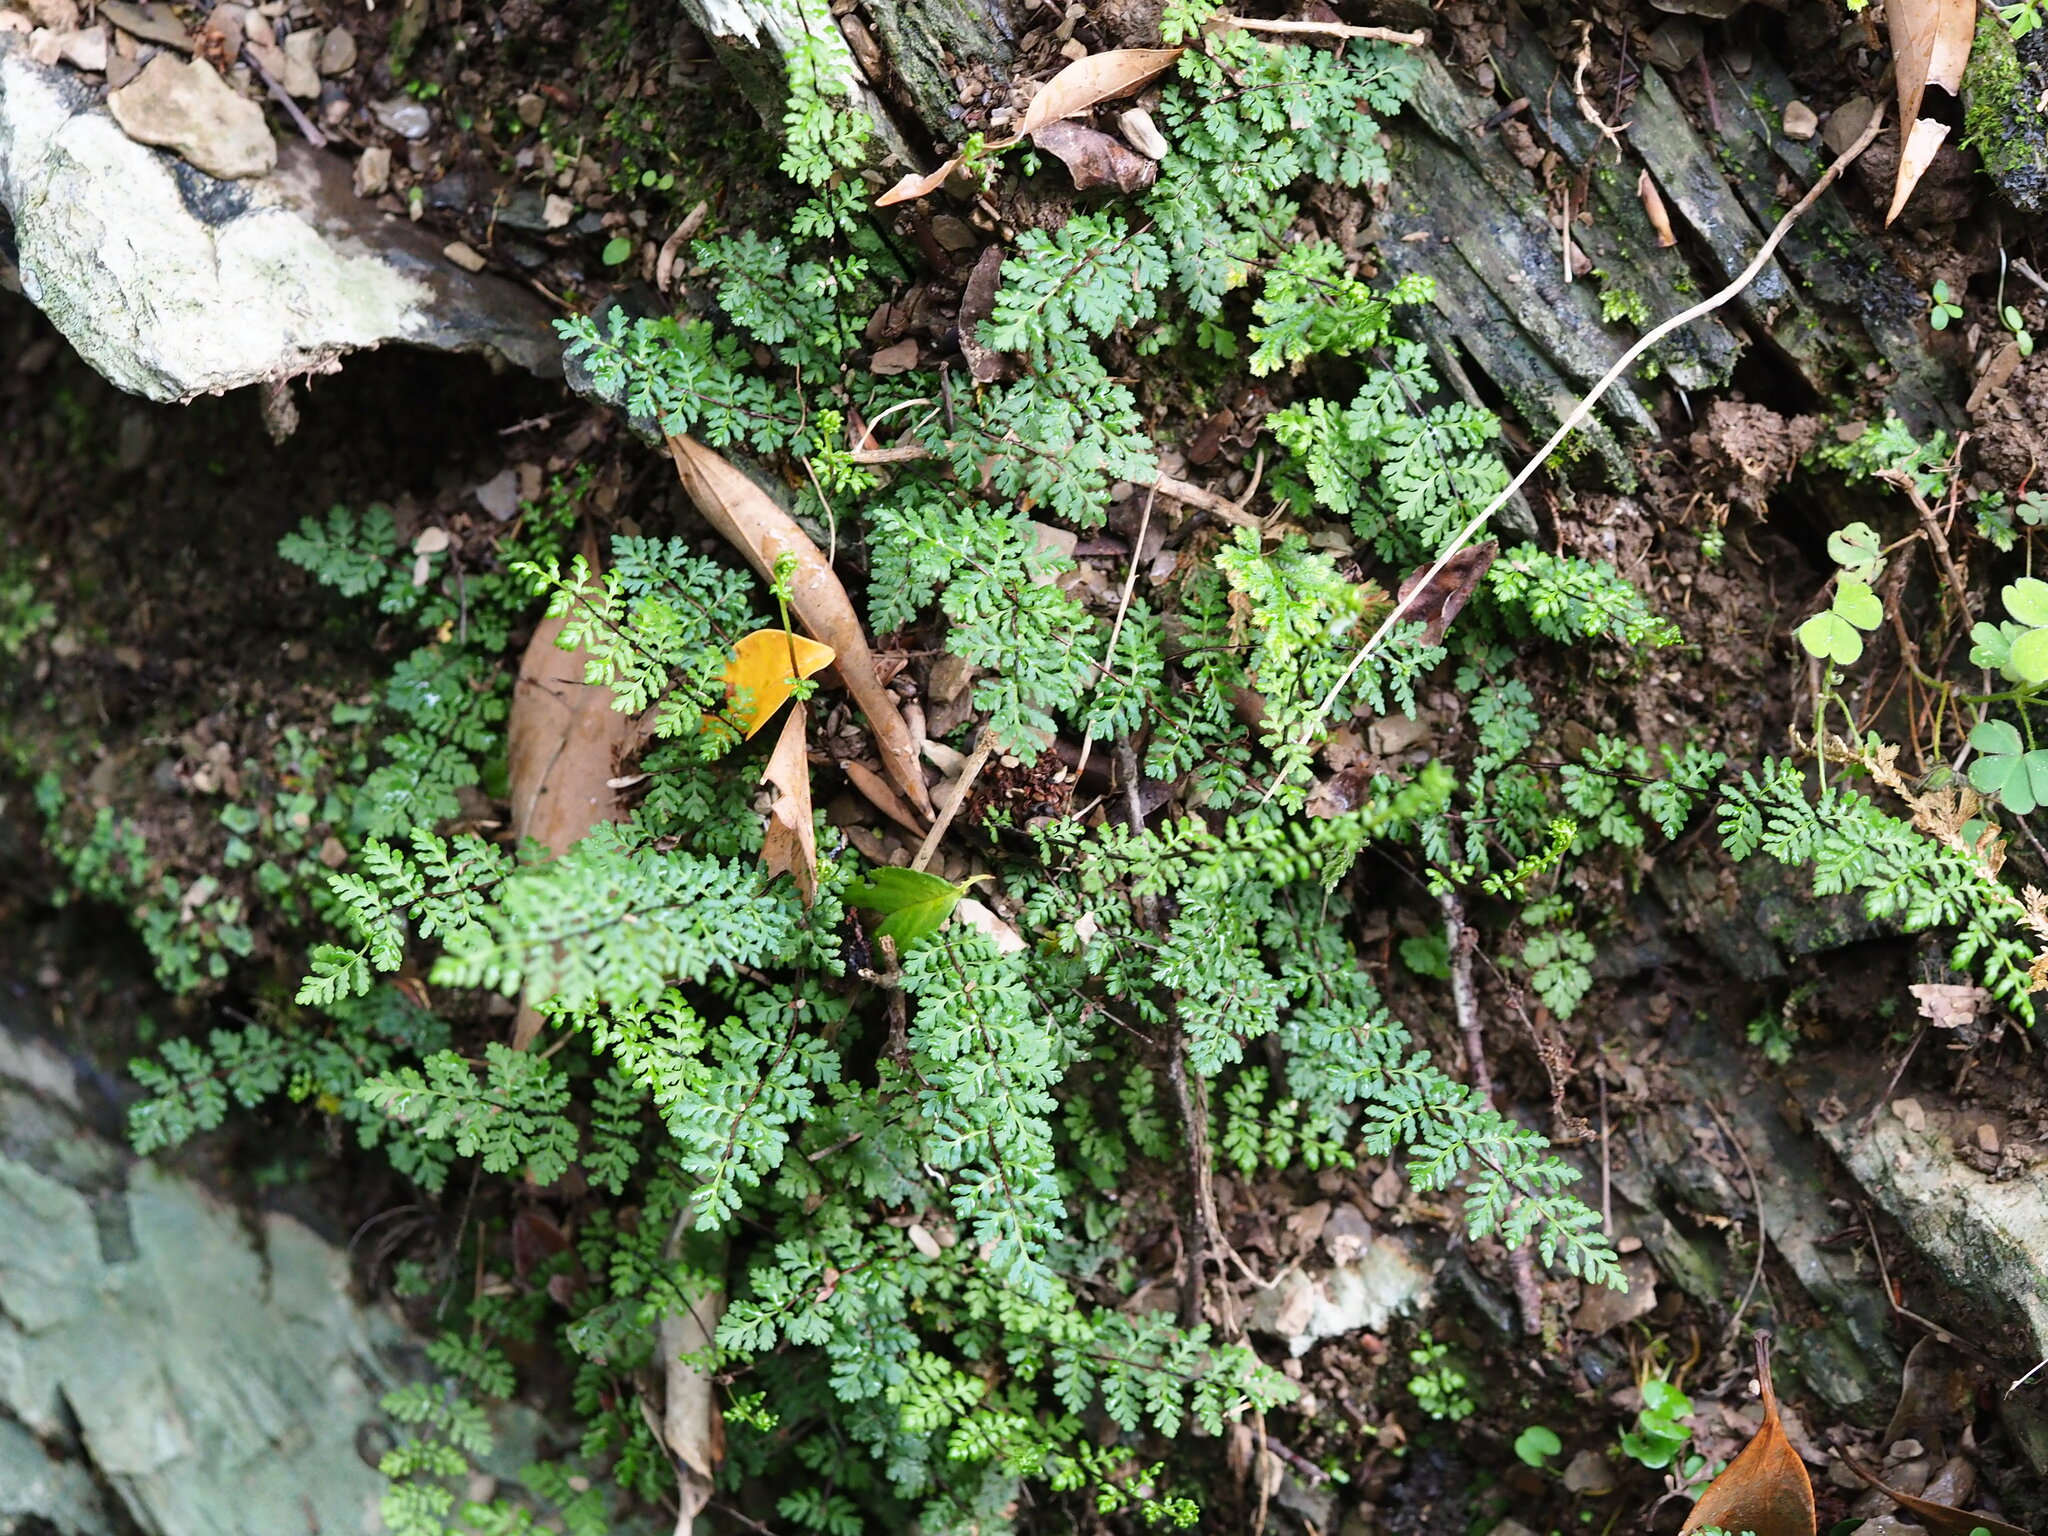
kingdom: Plantae
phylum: Tracheophyta
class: Polypodiopsida
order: Polypodiales
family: Pteridaceae
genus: Oeosporangium
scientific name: Oeosporangium chusanum
